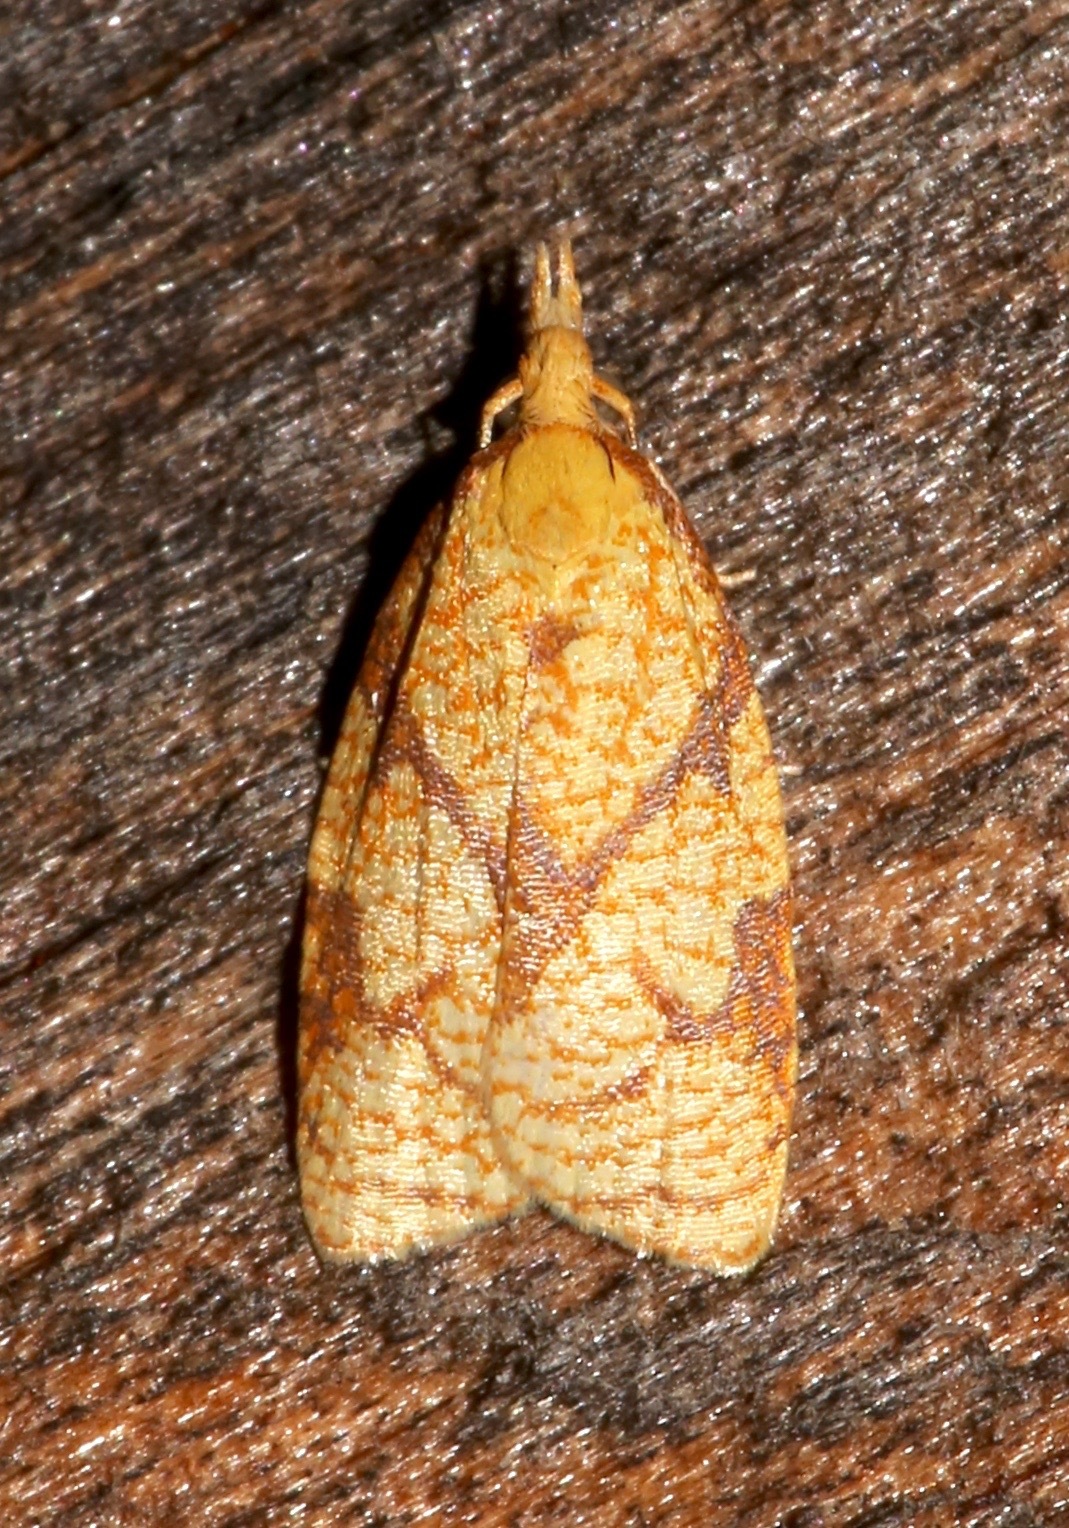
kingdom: Animalia
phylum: Arthropoda
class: Insecta
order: Lepidoptera
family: Tortricidae
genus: Cenopis
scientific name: Cenopis reticulatana
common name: Reticulated fruitworm moth
